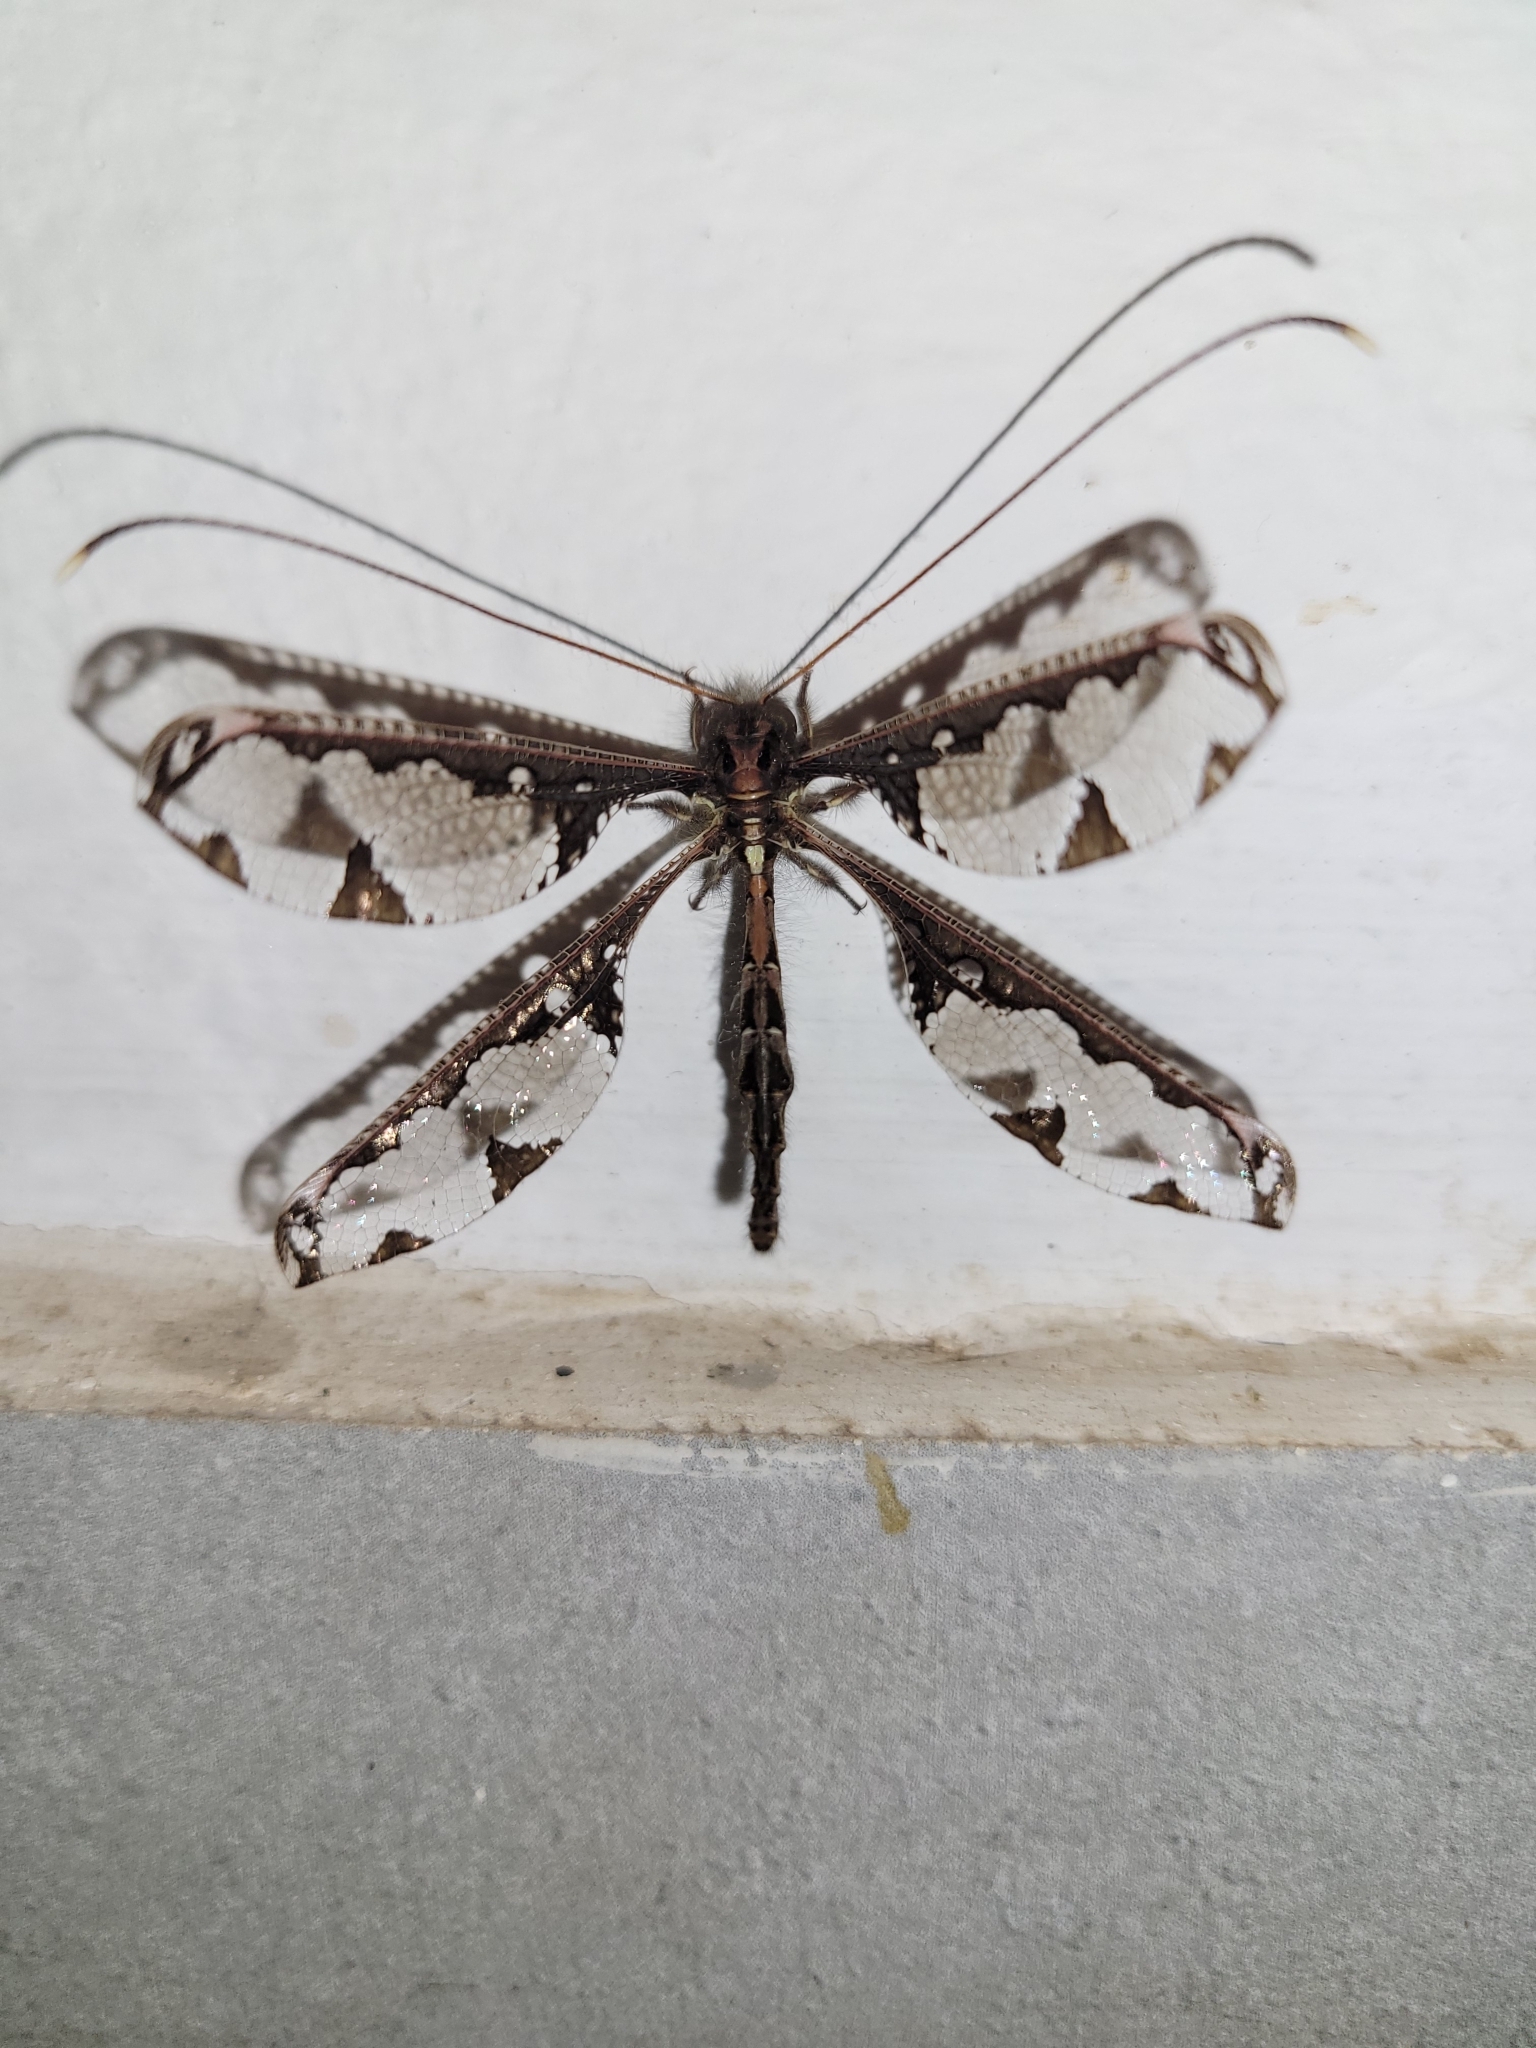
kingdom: Animalia
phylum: Arthropoda
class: Insecta
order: Neuroptera
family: Ascalaphidae
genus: Tmesibasis
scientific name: Tmesibasis lacerata
